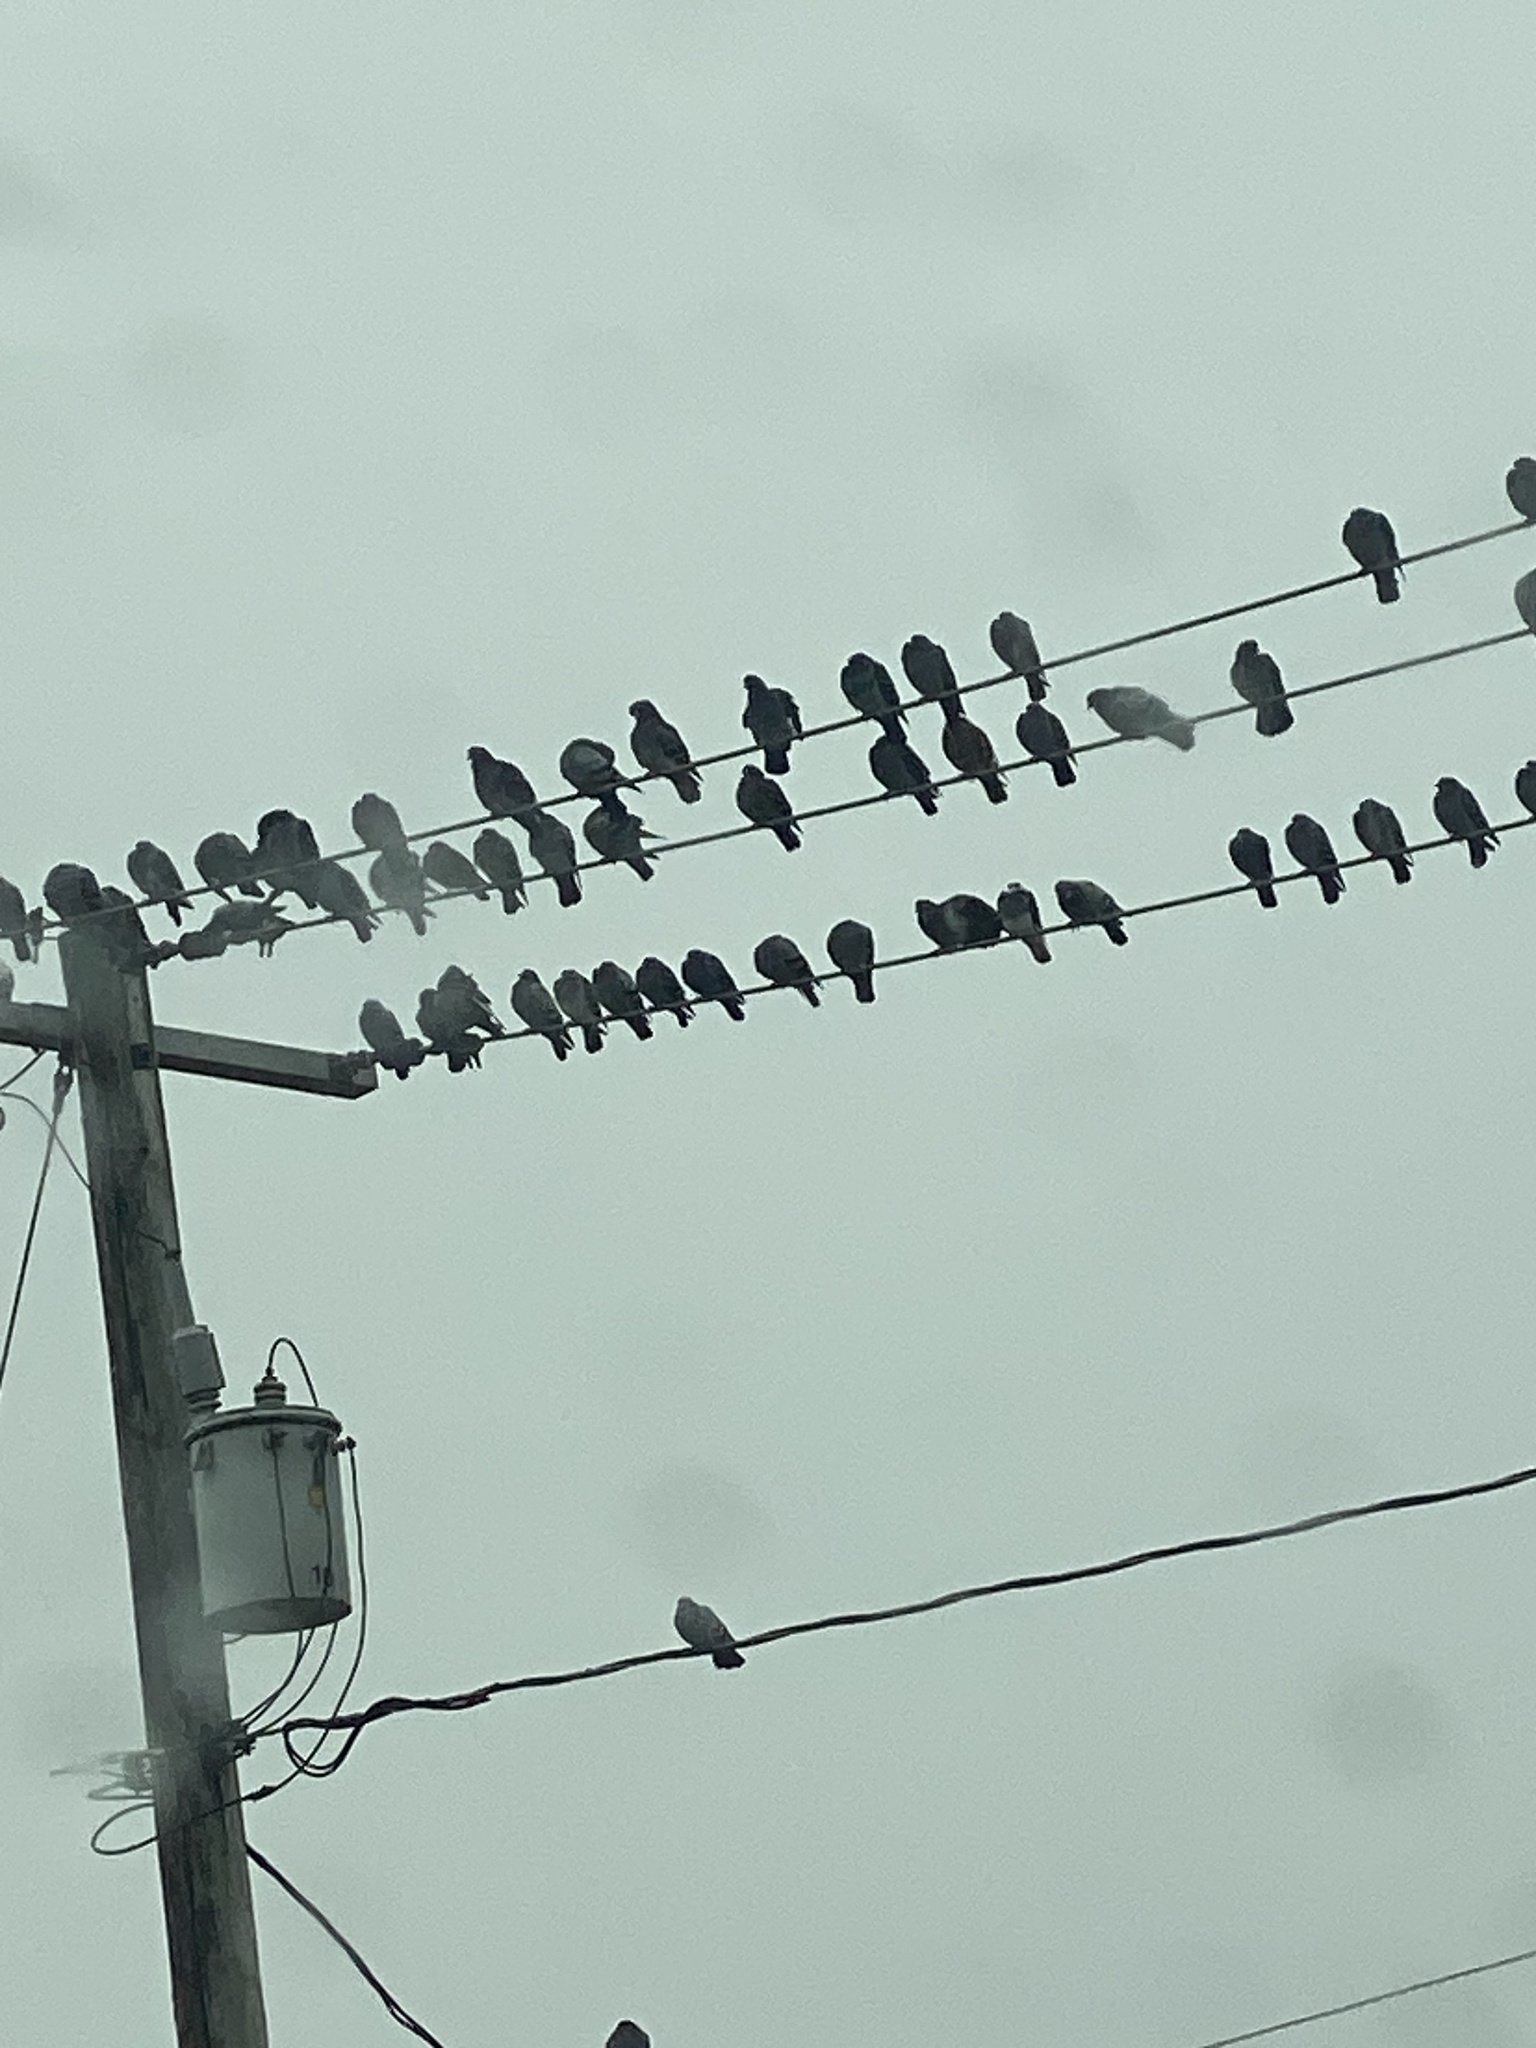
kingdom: Animalia
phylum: Chordata
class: Aves
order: Columbiformes
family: Columbidae
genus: Columba
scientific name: Columba livia
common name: Rock pigeon
